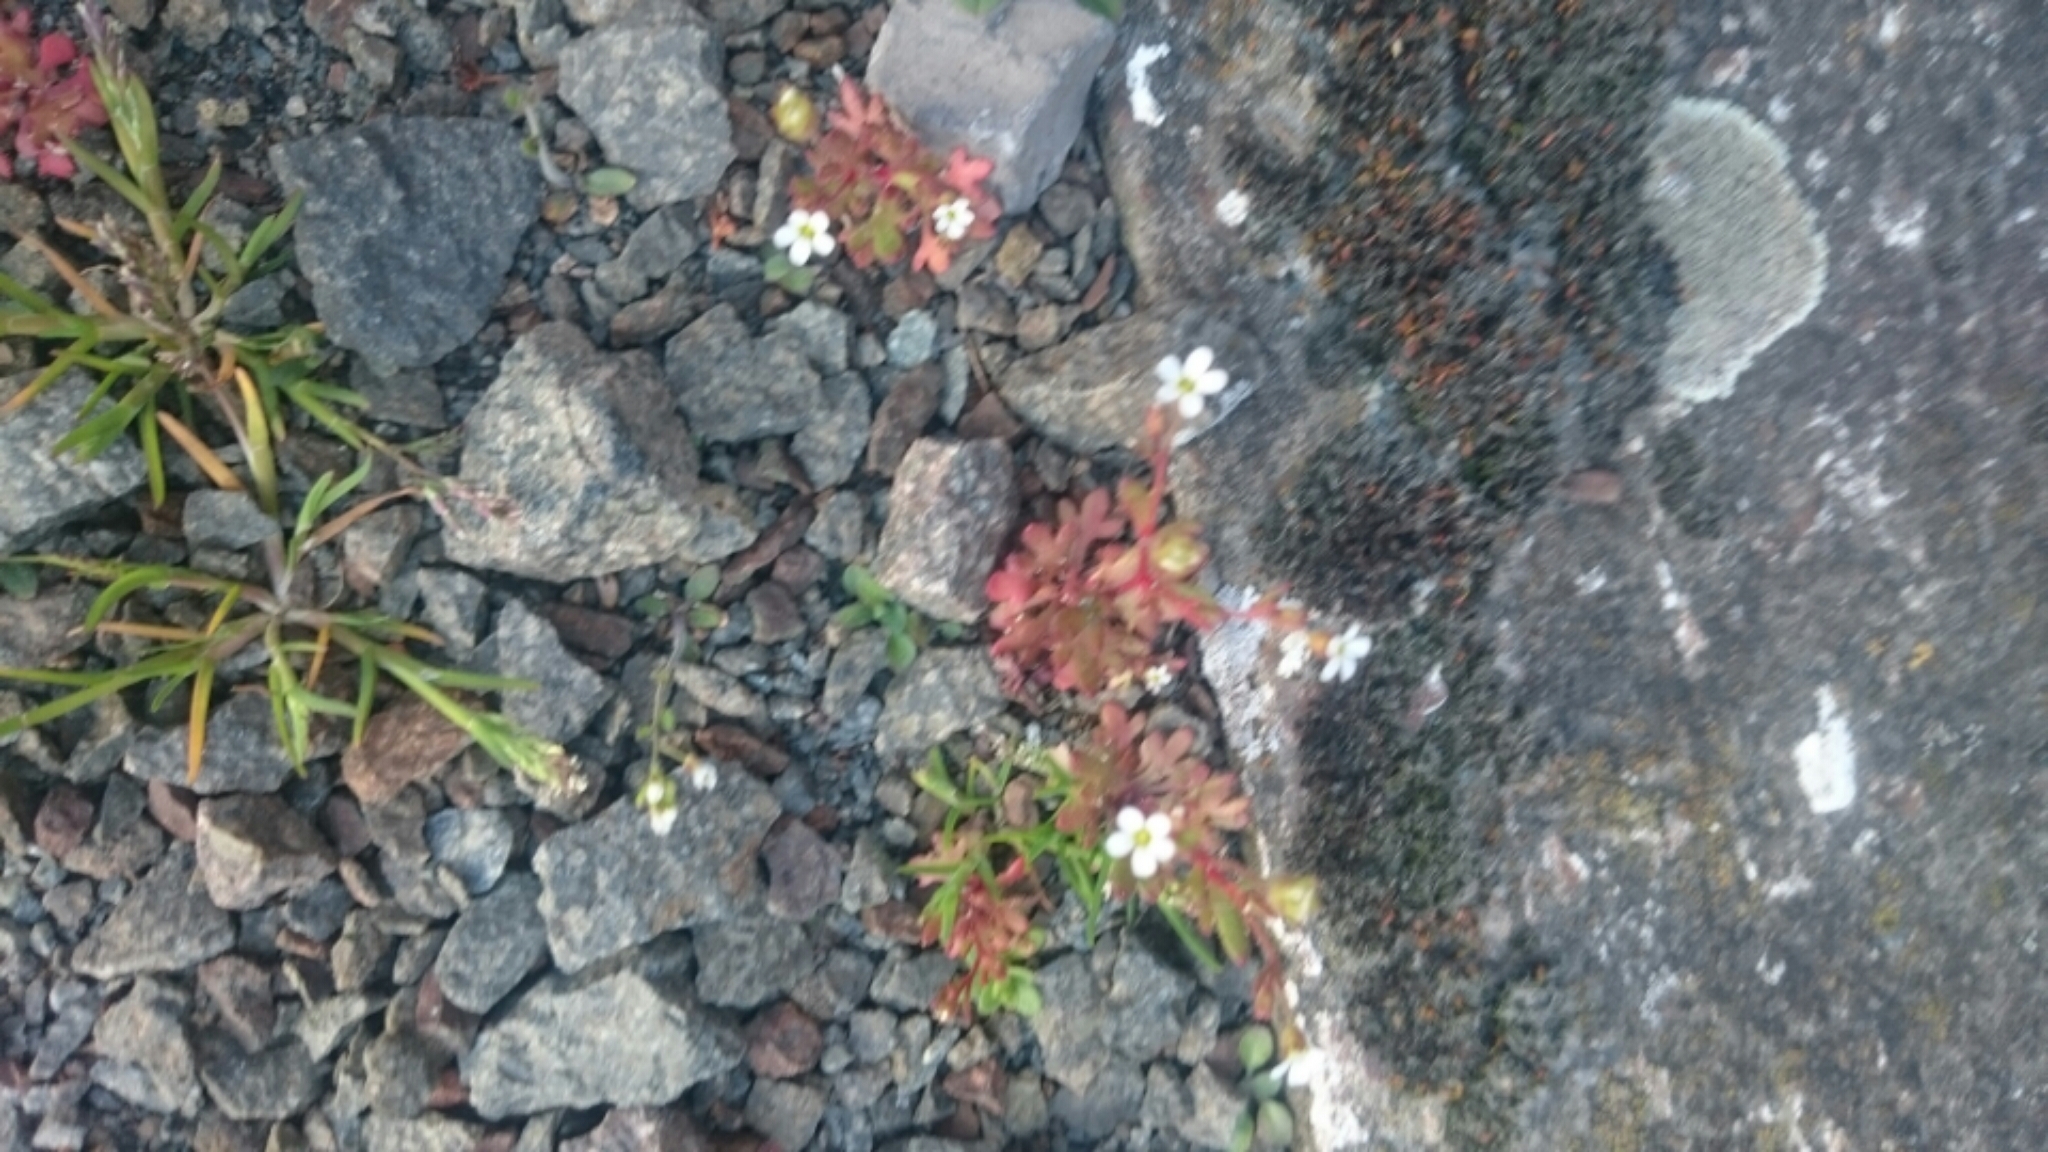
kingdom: Plantae
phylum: Tracheophyta
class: Magnoliopsida
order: Saxifragales
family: Saxifragaceae
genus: Saxifraga
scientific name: Saxifraga tridactylites
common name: Rue-leaved saxifrage
